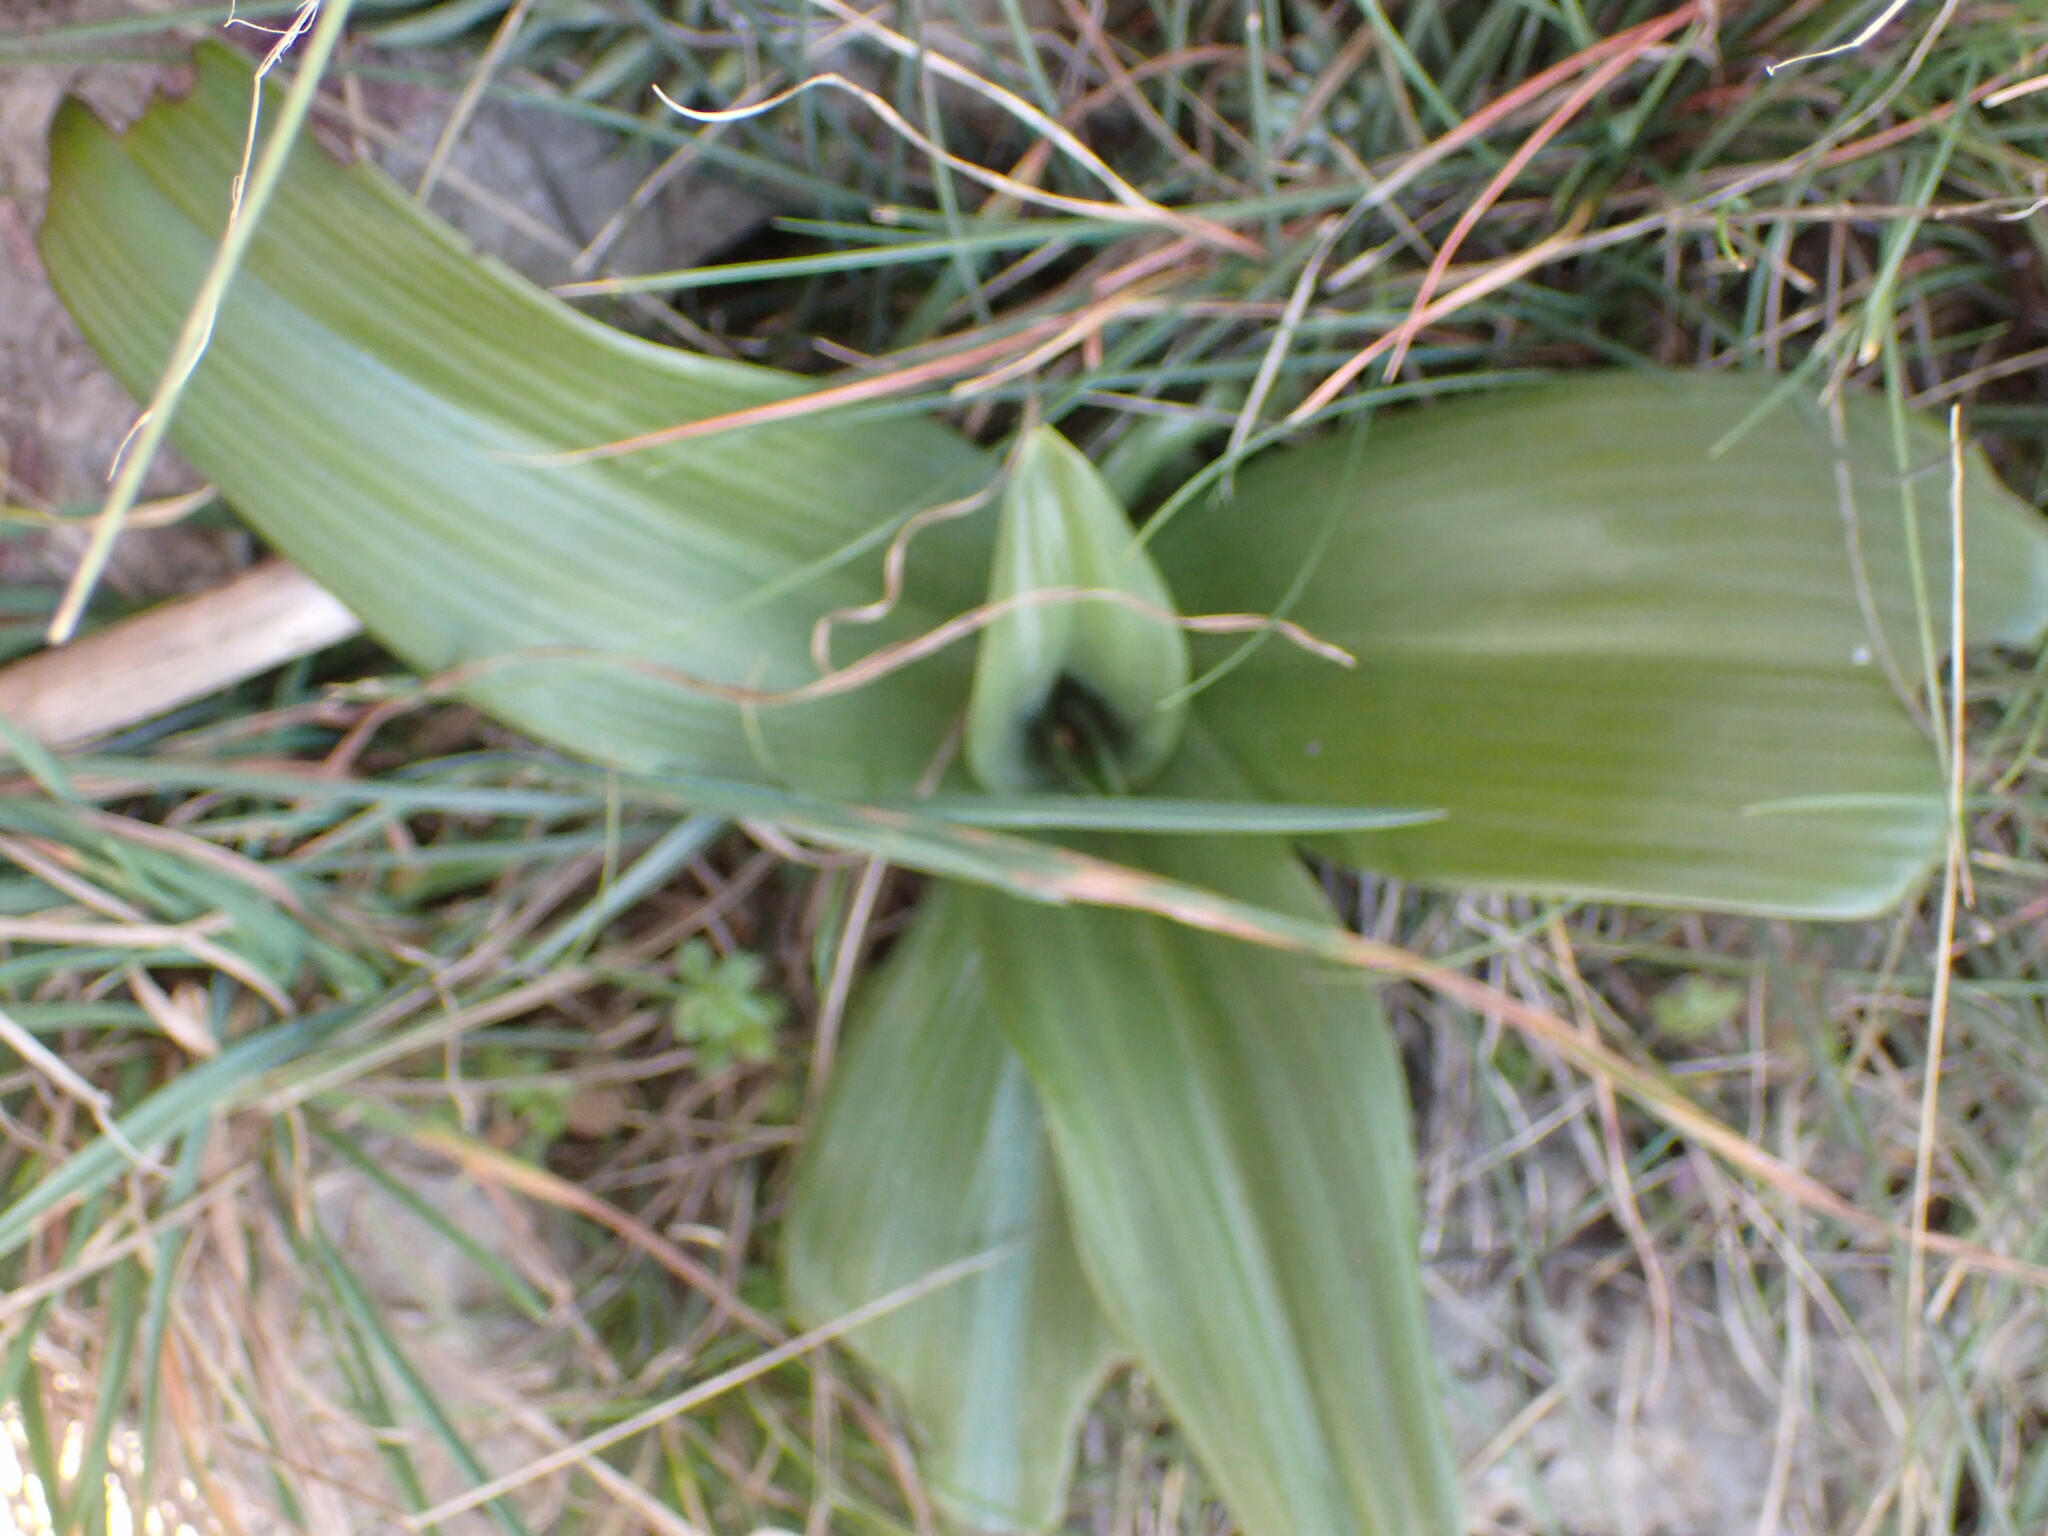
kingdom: Plantae
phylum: Tracheophyta
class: Liliopsida
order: Asparagales
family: Orchidaceae
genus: Himantoglossum
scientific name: Himantoglossum hircinum
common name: Lizard orchid
